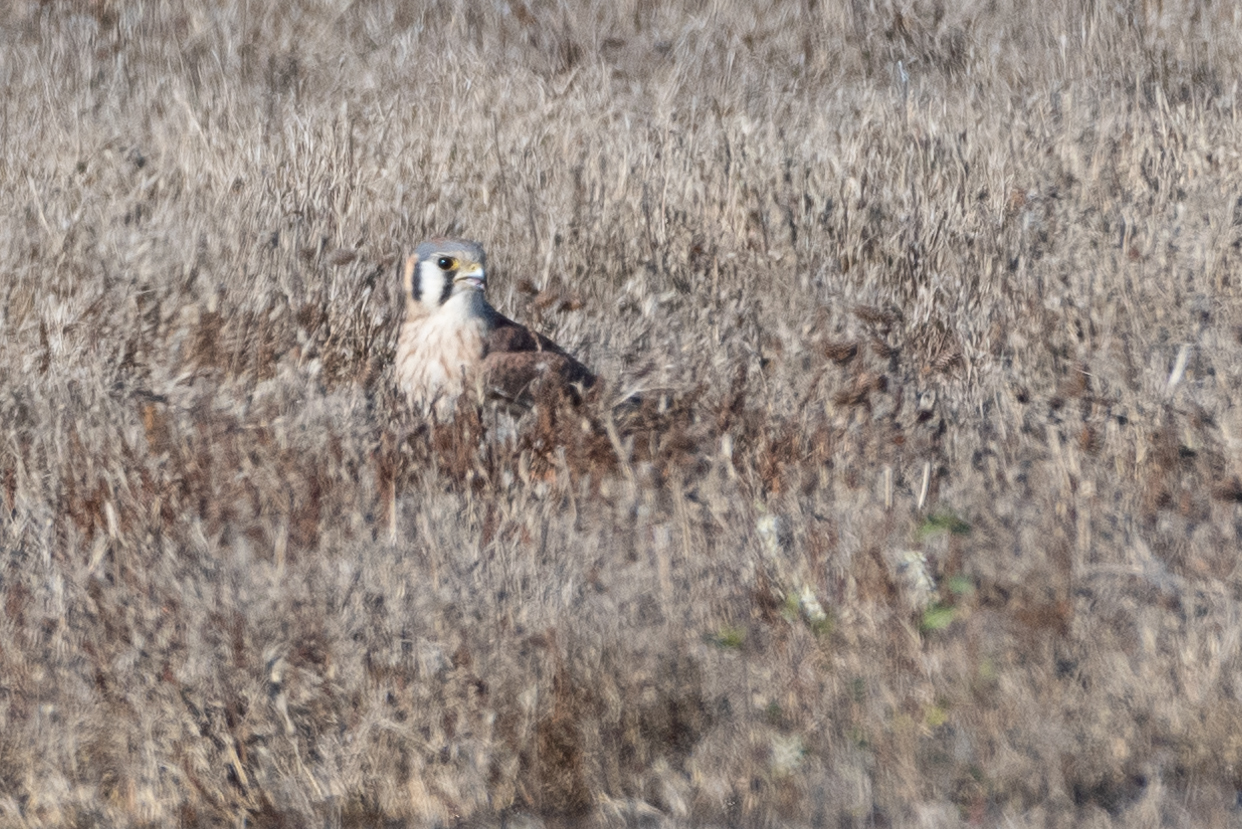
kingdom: Animalia
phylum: Chordata
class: Aves
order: Falconiformes
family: Falconidae
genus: Falco
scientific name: Falco sparverius
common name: American kestrel
